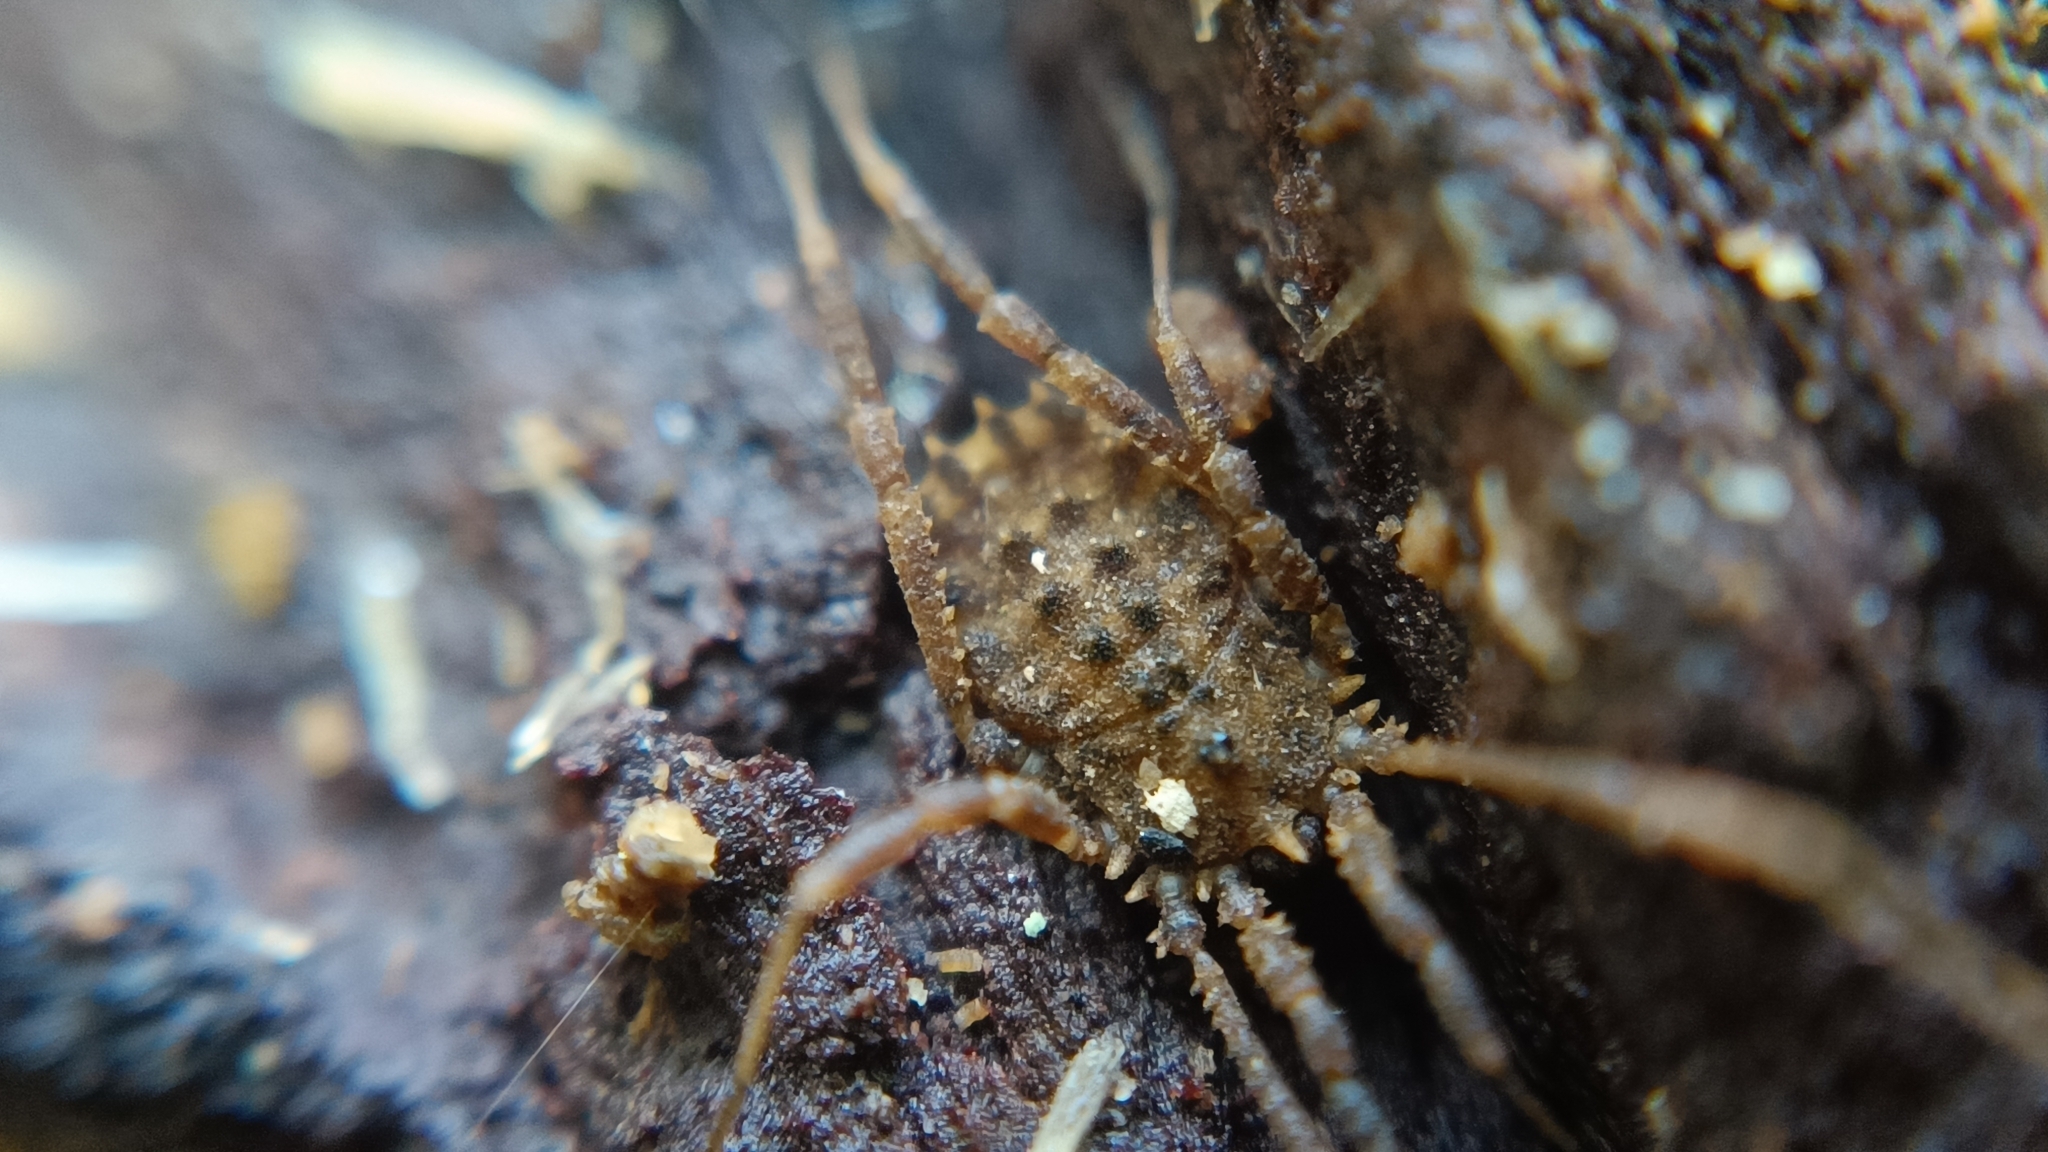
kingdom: Animalia
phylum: Arthropoda
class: Arachnida
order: Opiliones
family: Sclerosomatidae
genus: Homalenotus
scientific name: Homalenotus quadridentatus
